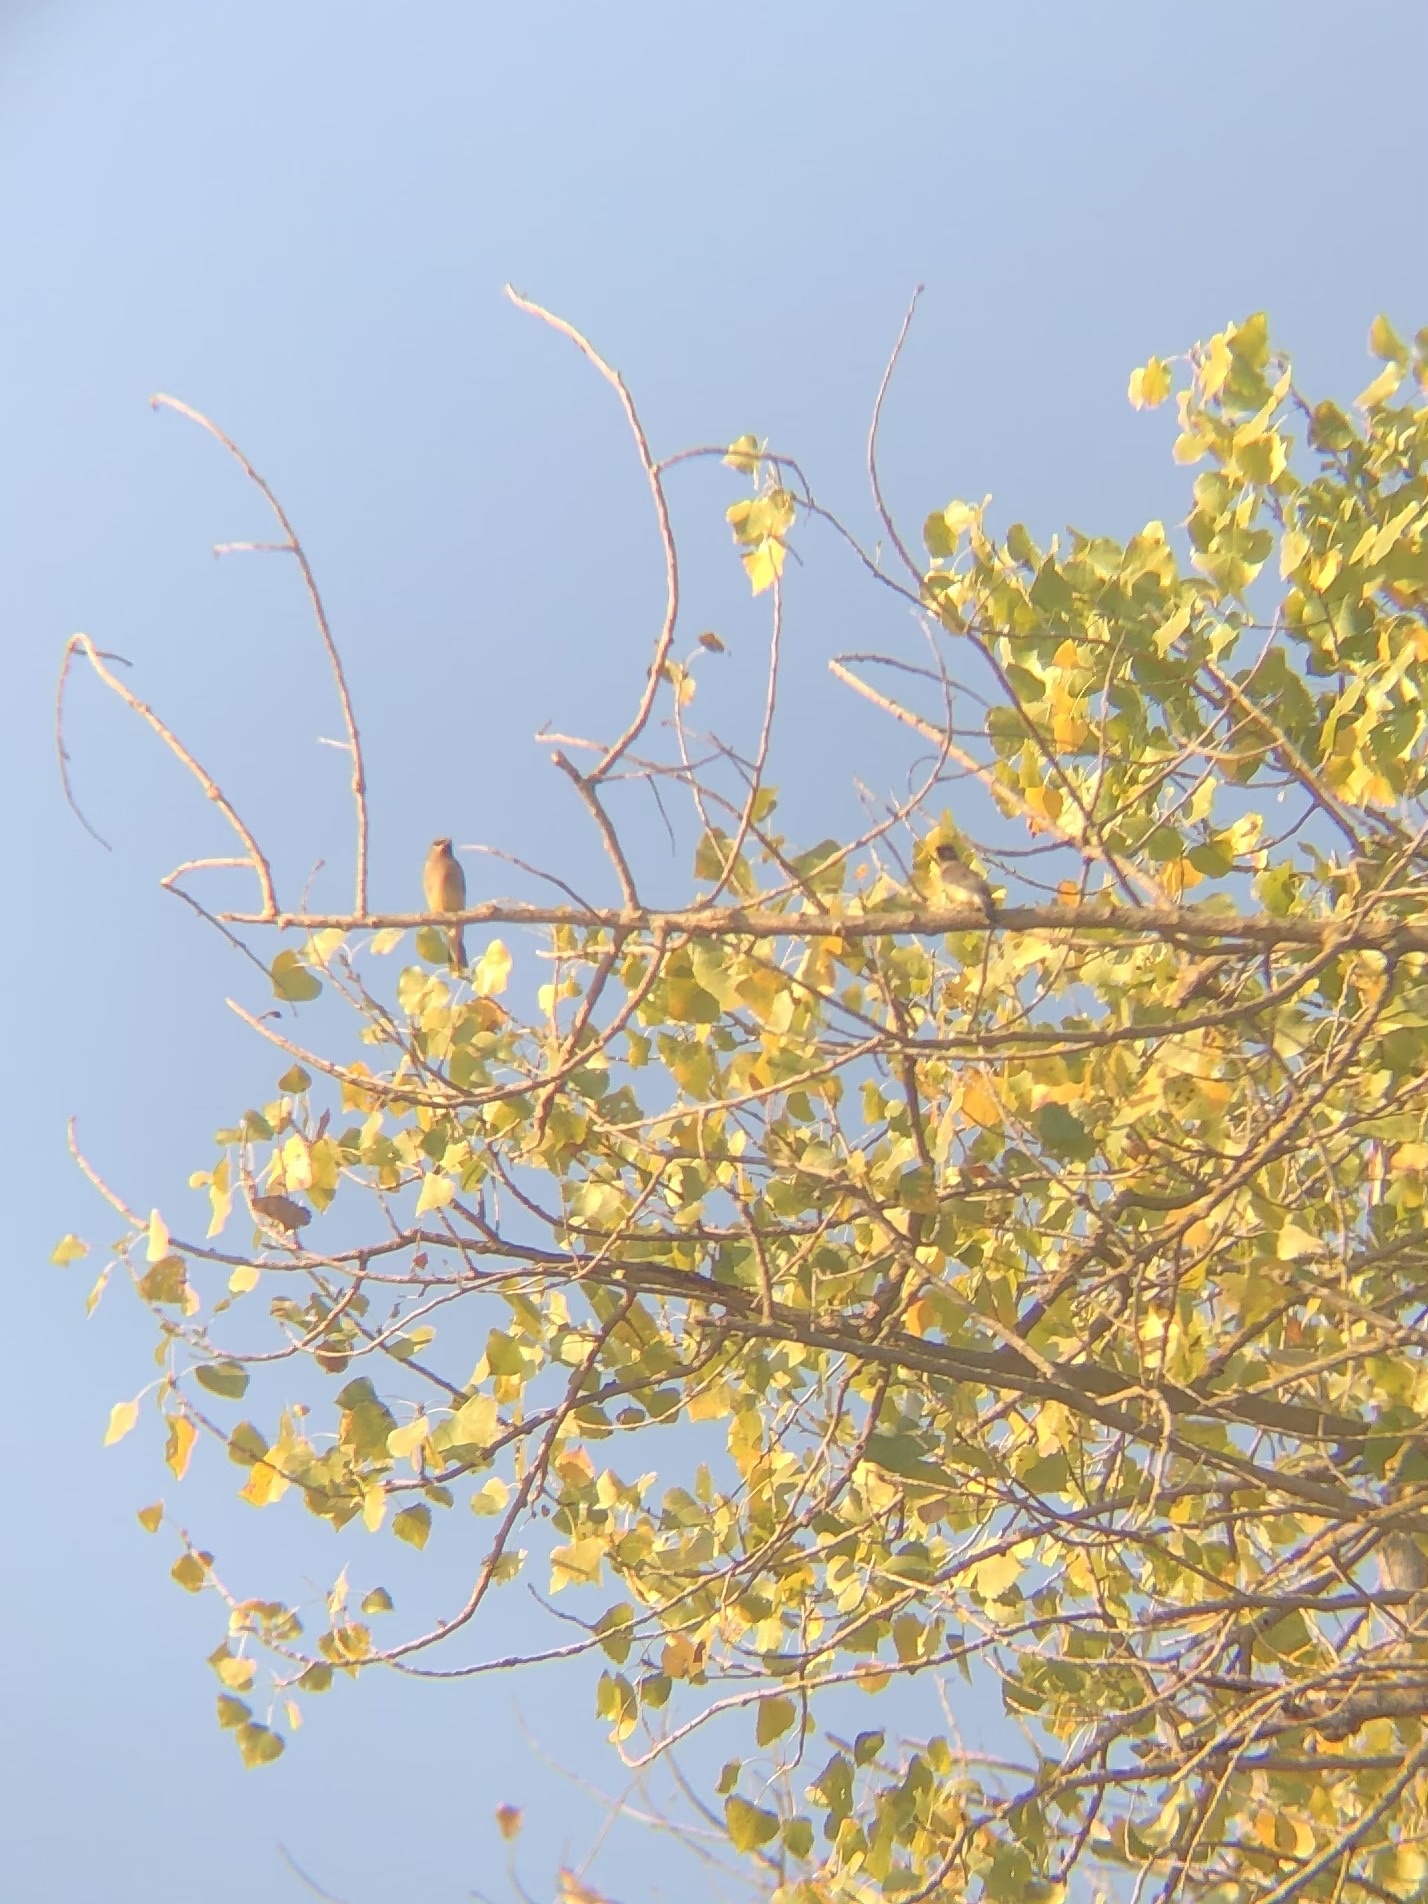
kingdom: Animalia
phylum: Chordata
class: Aves
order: Passeriformes
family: Bombycillidae
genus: Bombycilla
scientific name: Bombycilla cedrorum
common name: Cedar waxwing
